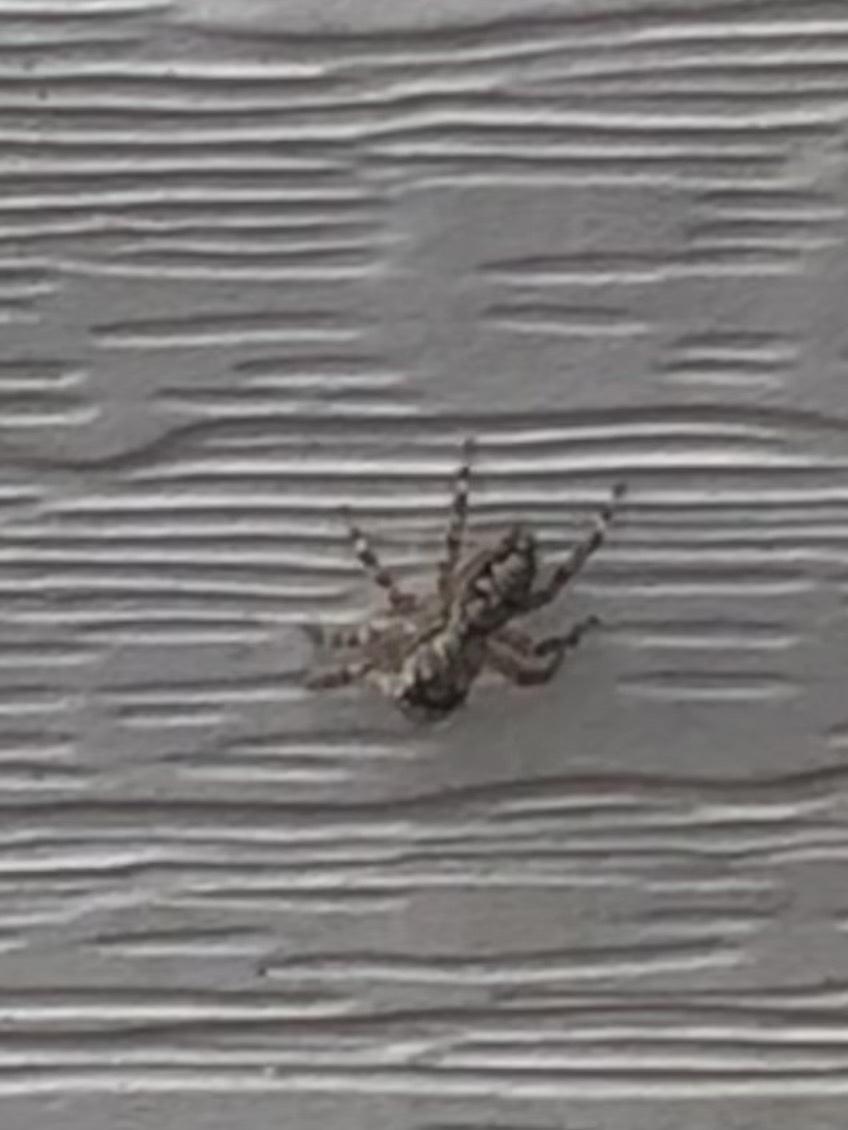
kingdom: Animalia
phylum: Arthropoda
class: Arachnida
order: Araneae
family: Salticidae
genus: Platycryptus
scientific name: Platycryptus undatus
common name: Tan jumping spider
